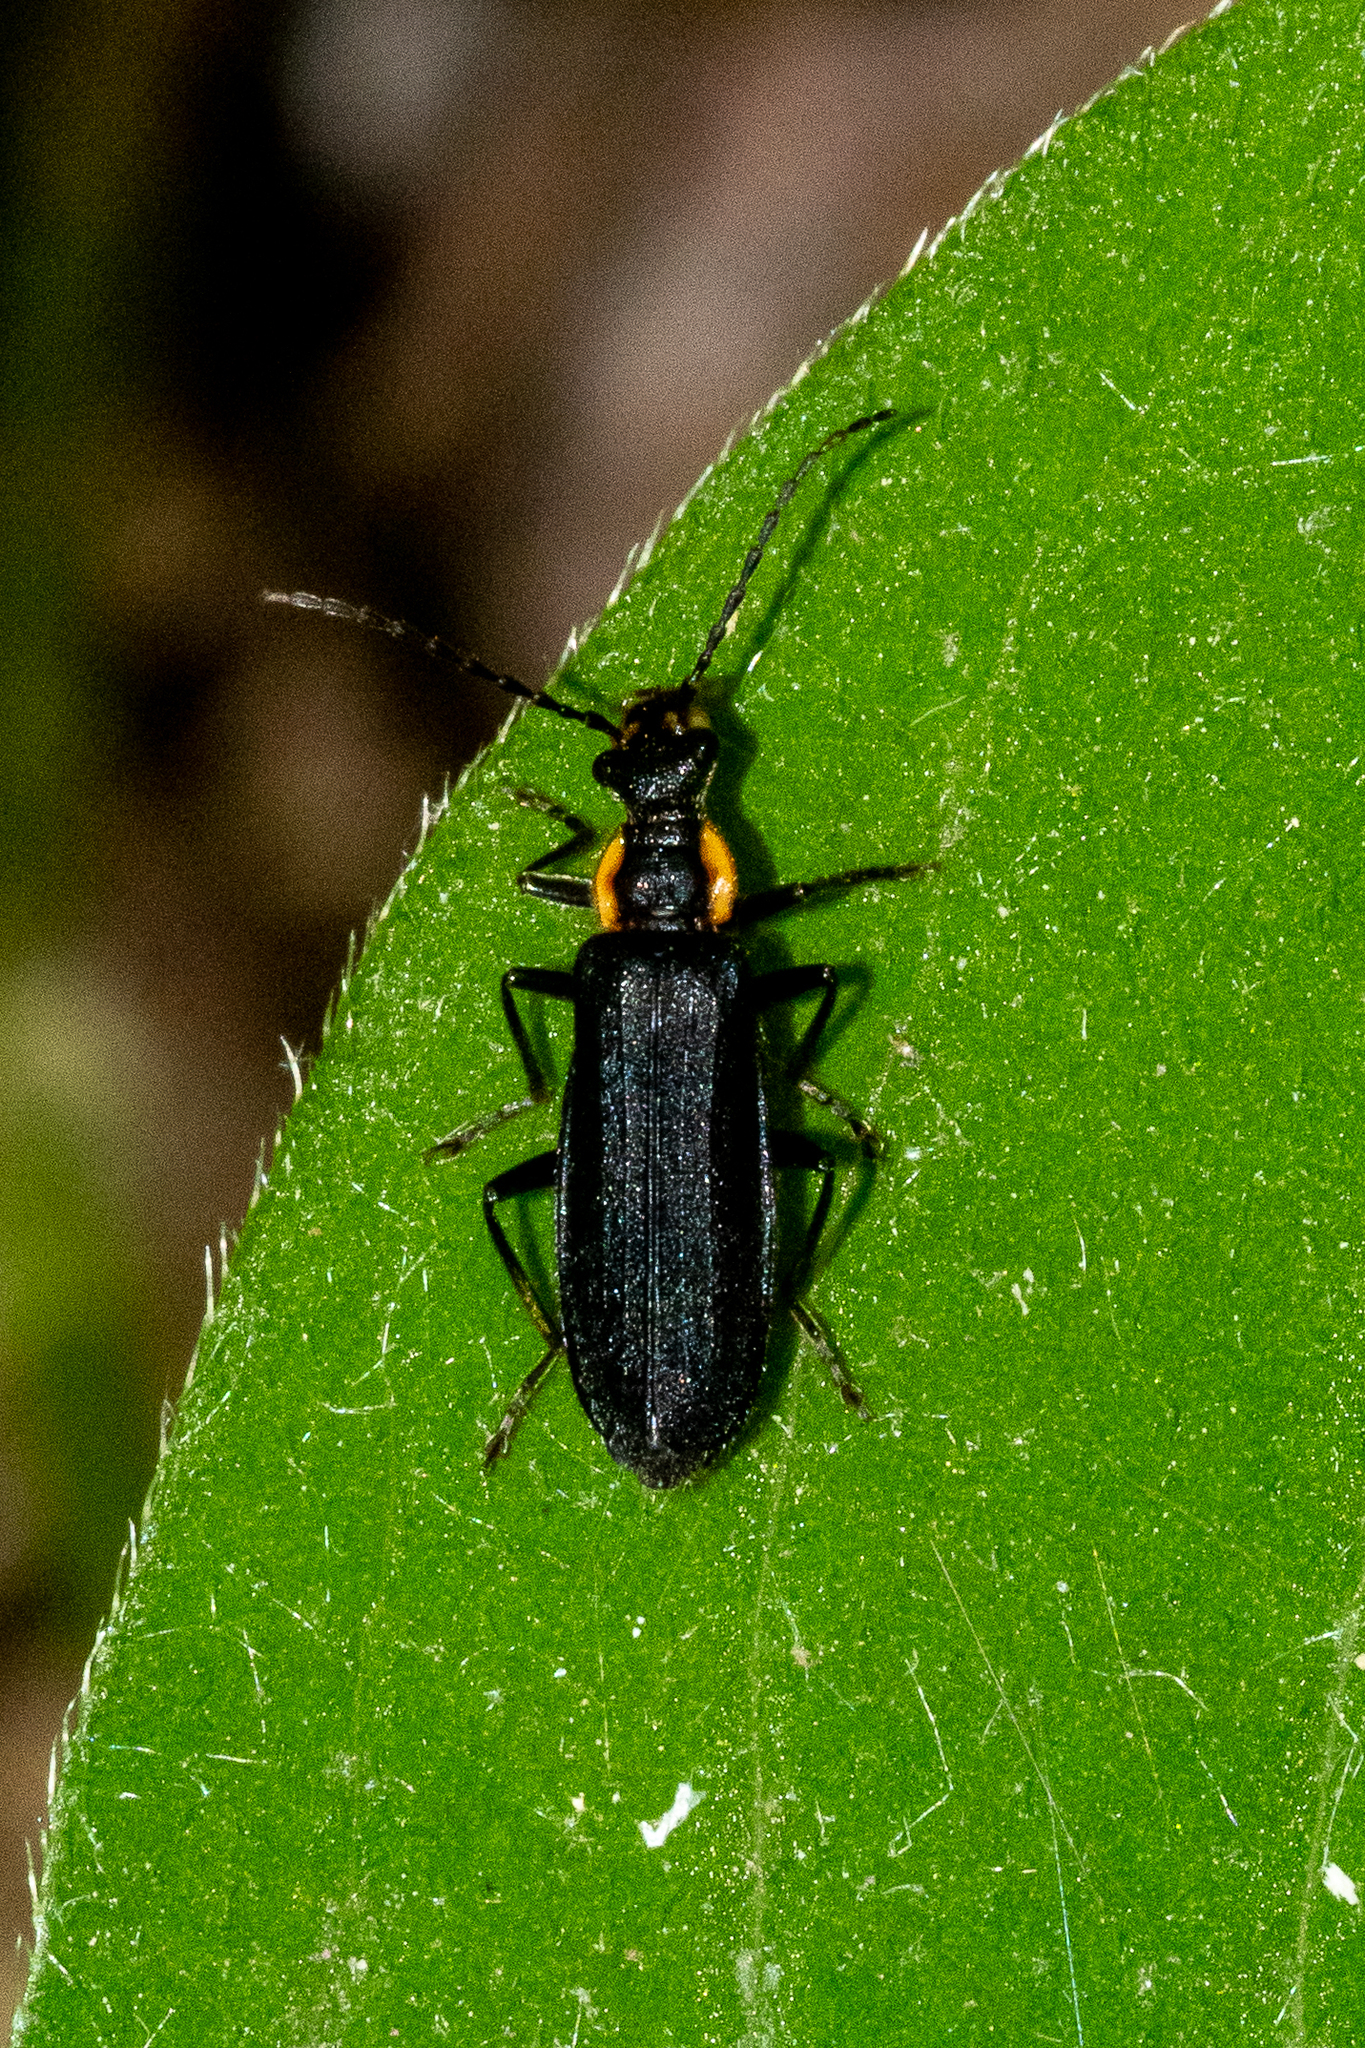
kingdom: Animalia
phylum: Arthropoda
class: Insecta
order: Coleoptera
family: Cantharidae
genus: Podabrus
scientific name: Podabrus rugosulus
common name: Wrinkled soldier beetle
